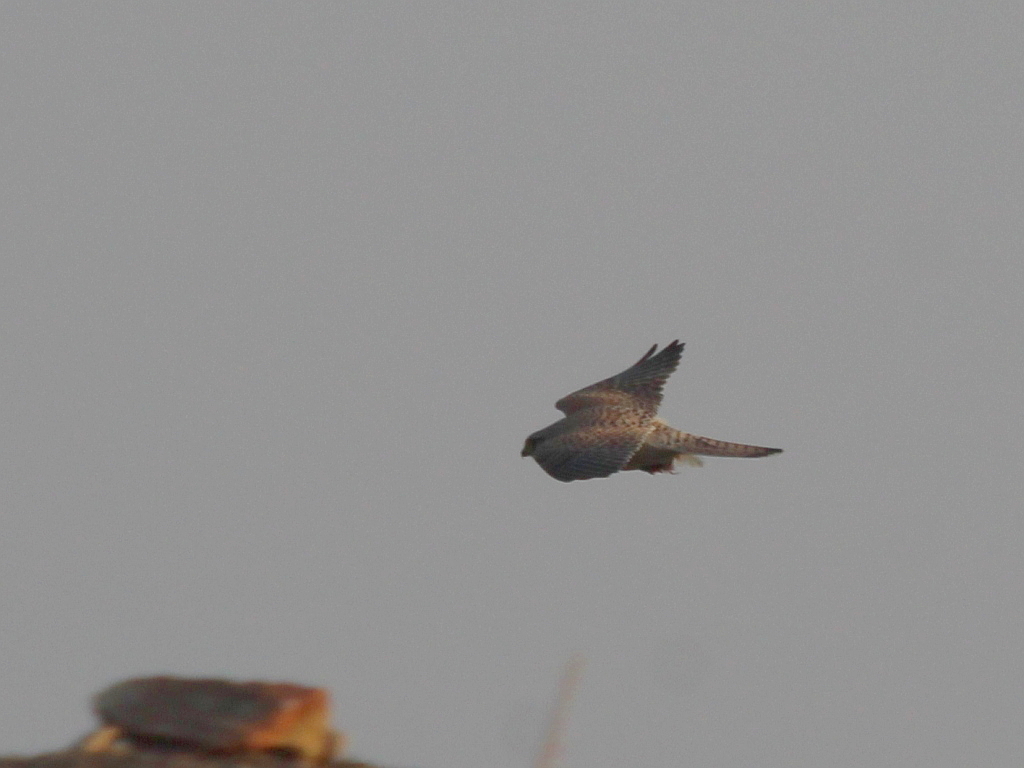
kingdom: Animalia
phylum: Chordata
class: Aves
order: Falconiformes
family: Falconidae
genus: Falco
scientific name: Falco tinnunculus
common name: Common kestrel
